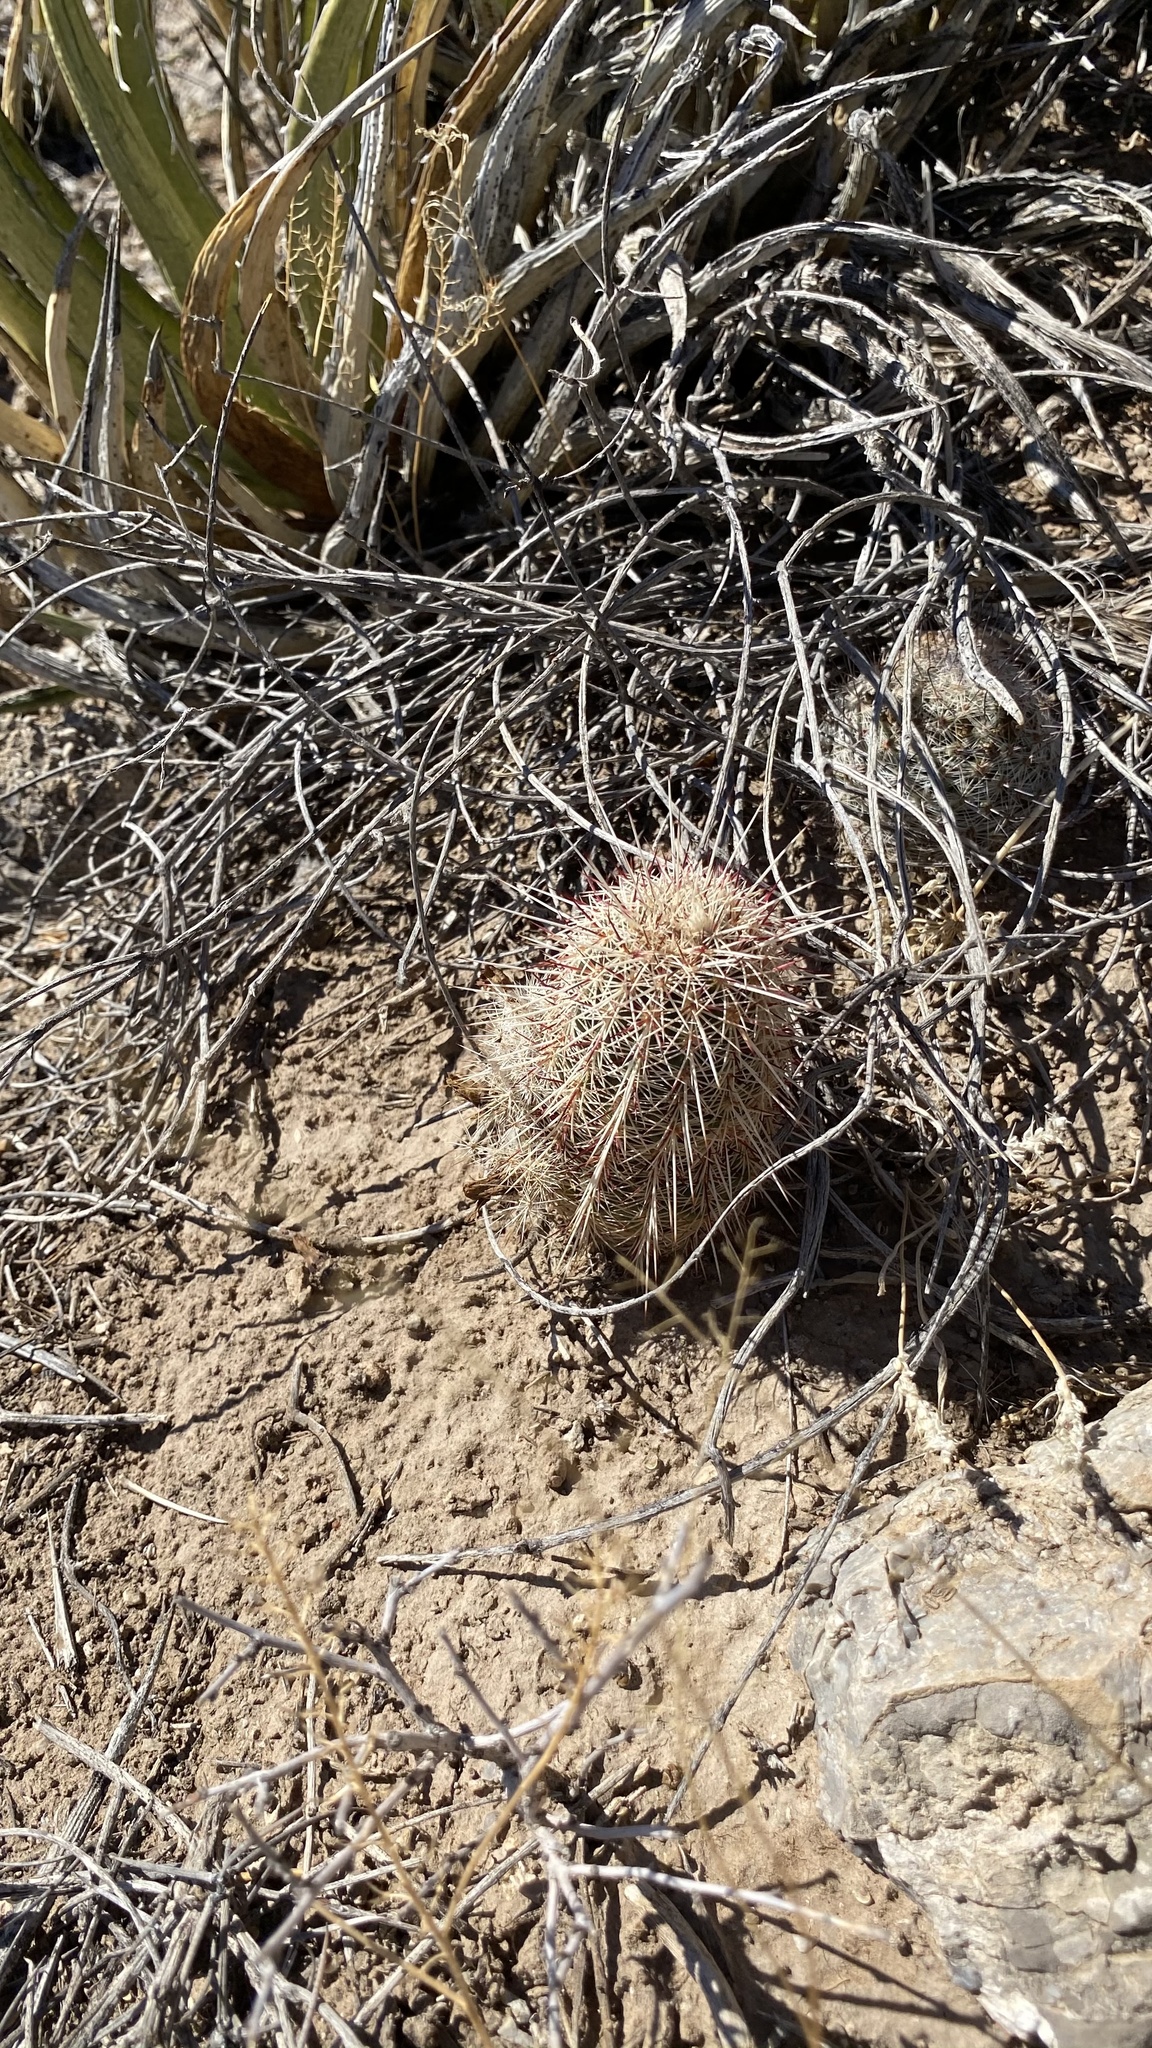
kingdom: Plantae
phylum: Tracheophyta
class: Magnoliopsida
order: Caryophyllales
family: Cactaceae
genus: Echinocereus
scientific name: Echinocereus viridiflorus
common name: Nylon hedgehog cactus
